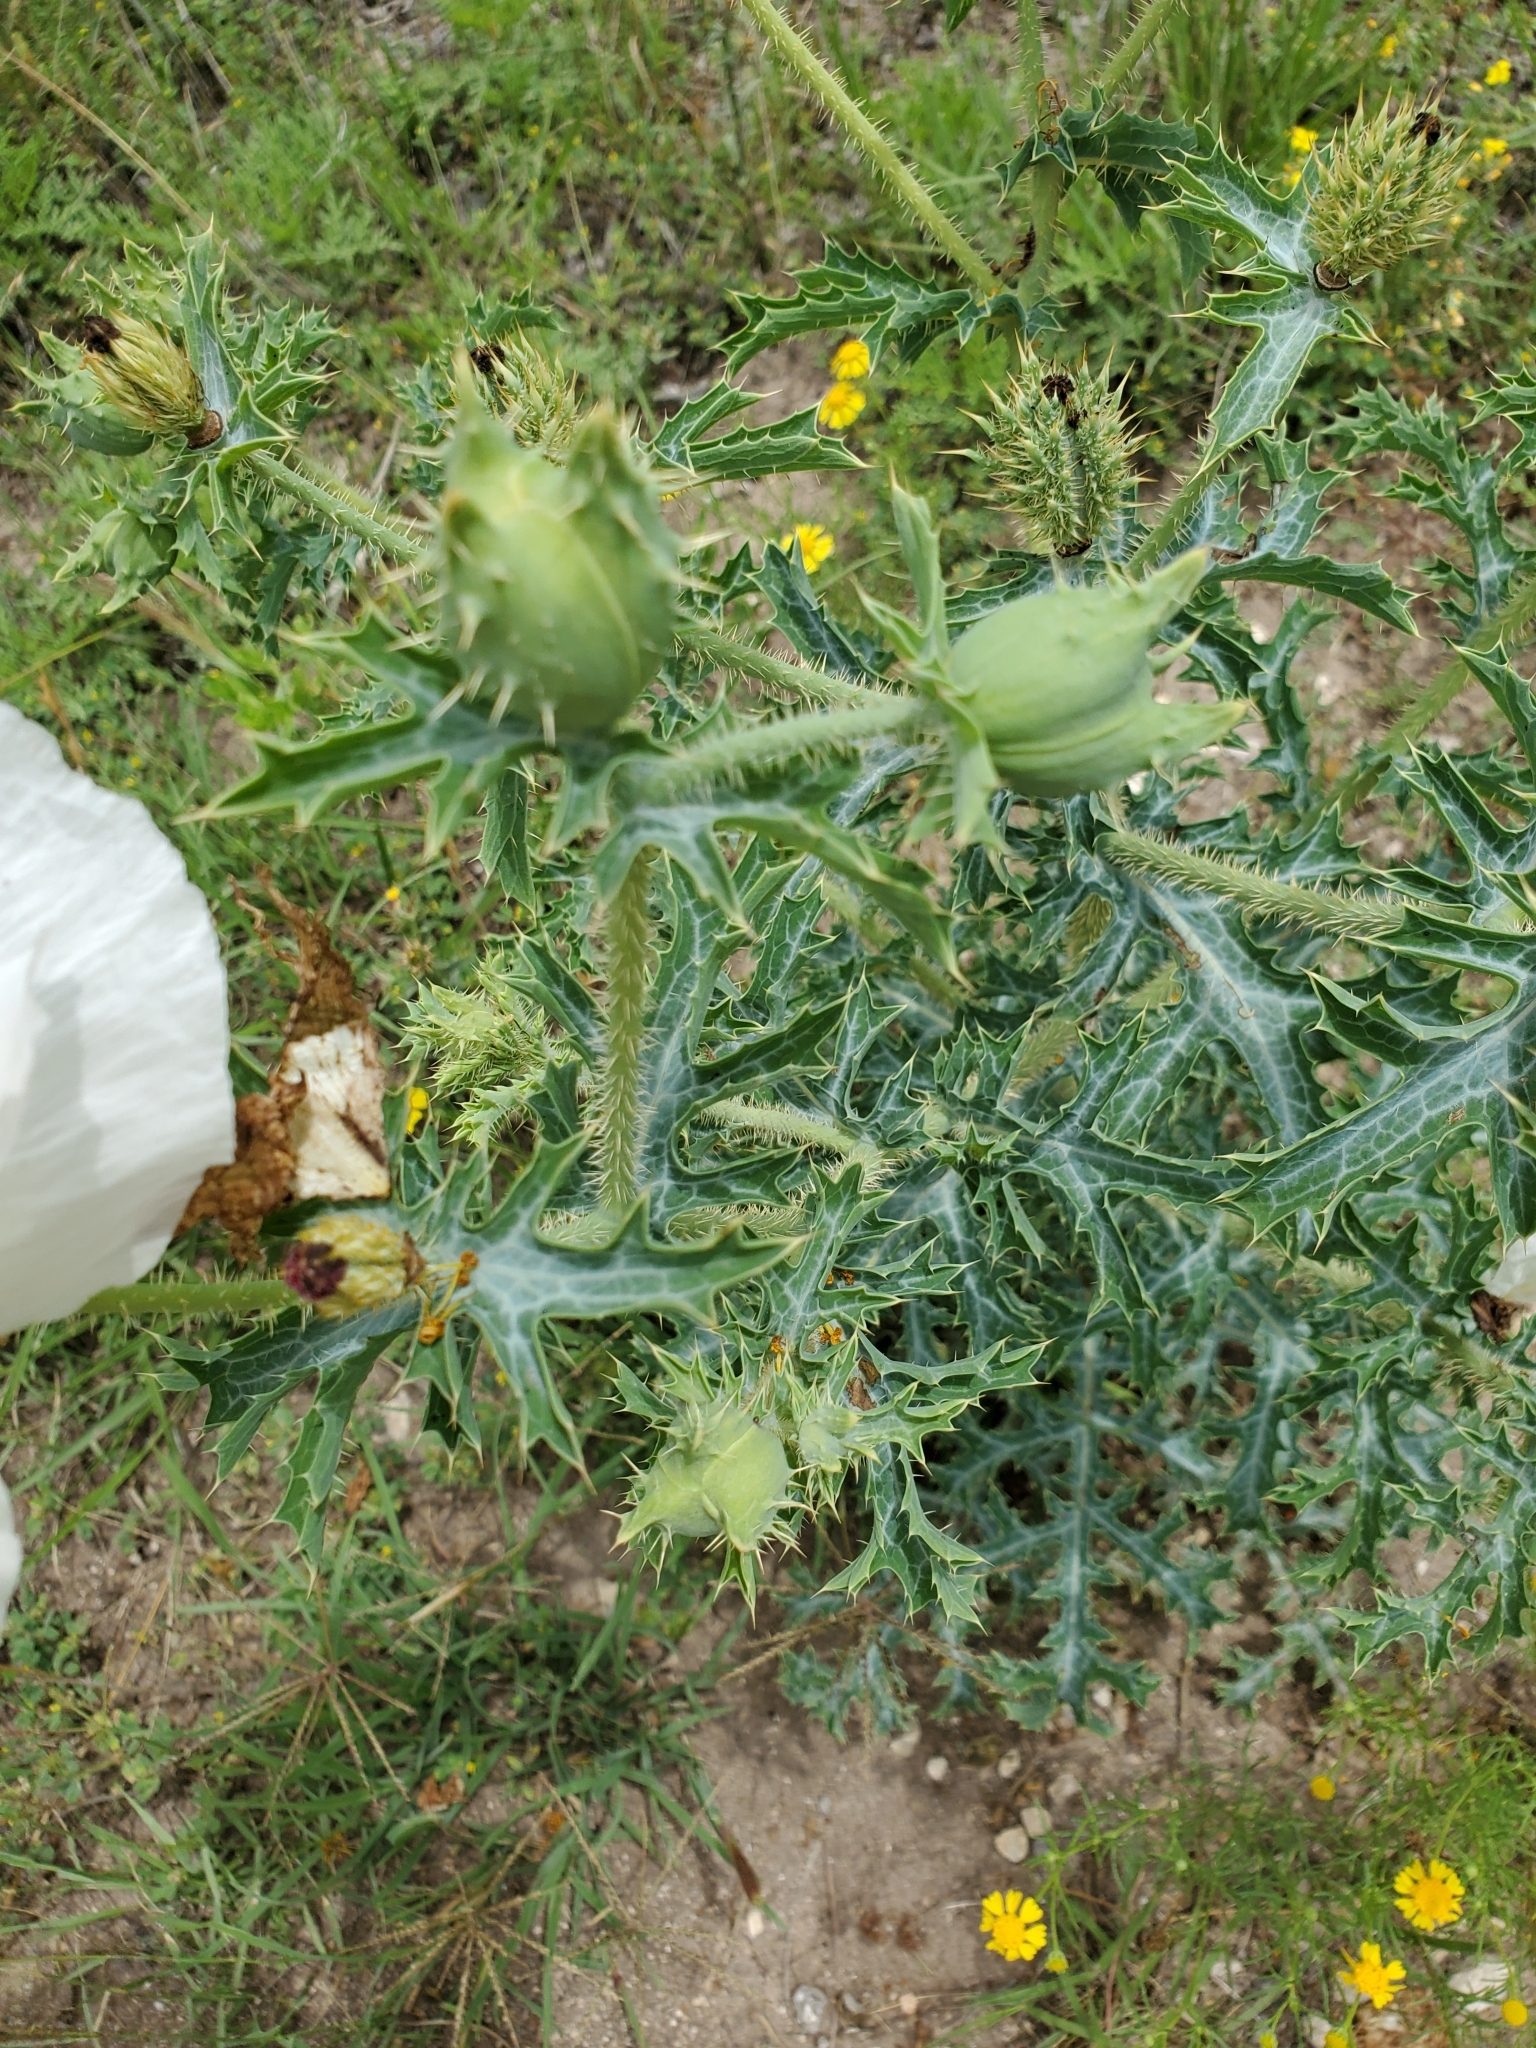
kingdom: Plantae
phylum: Tracheophyta
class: Magnoliopsida
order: Ranunculales
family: Papaveraceae
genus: Argemone
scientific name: Argemone albiflora
